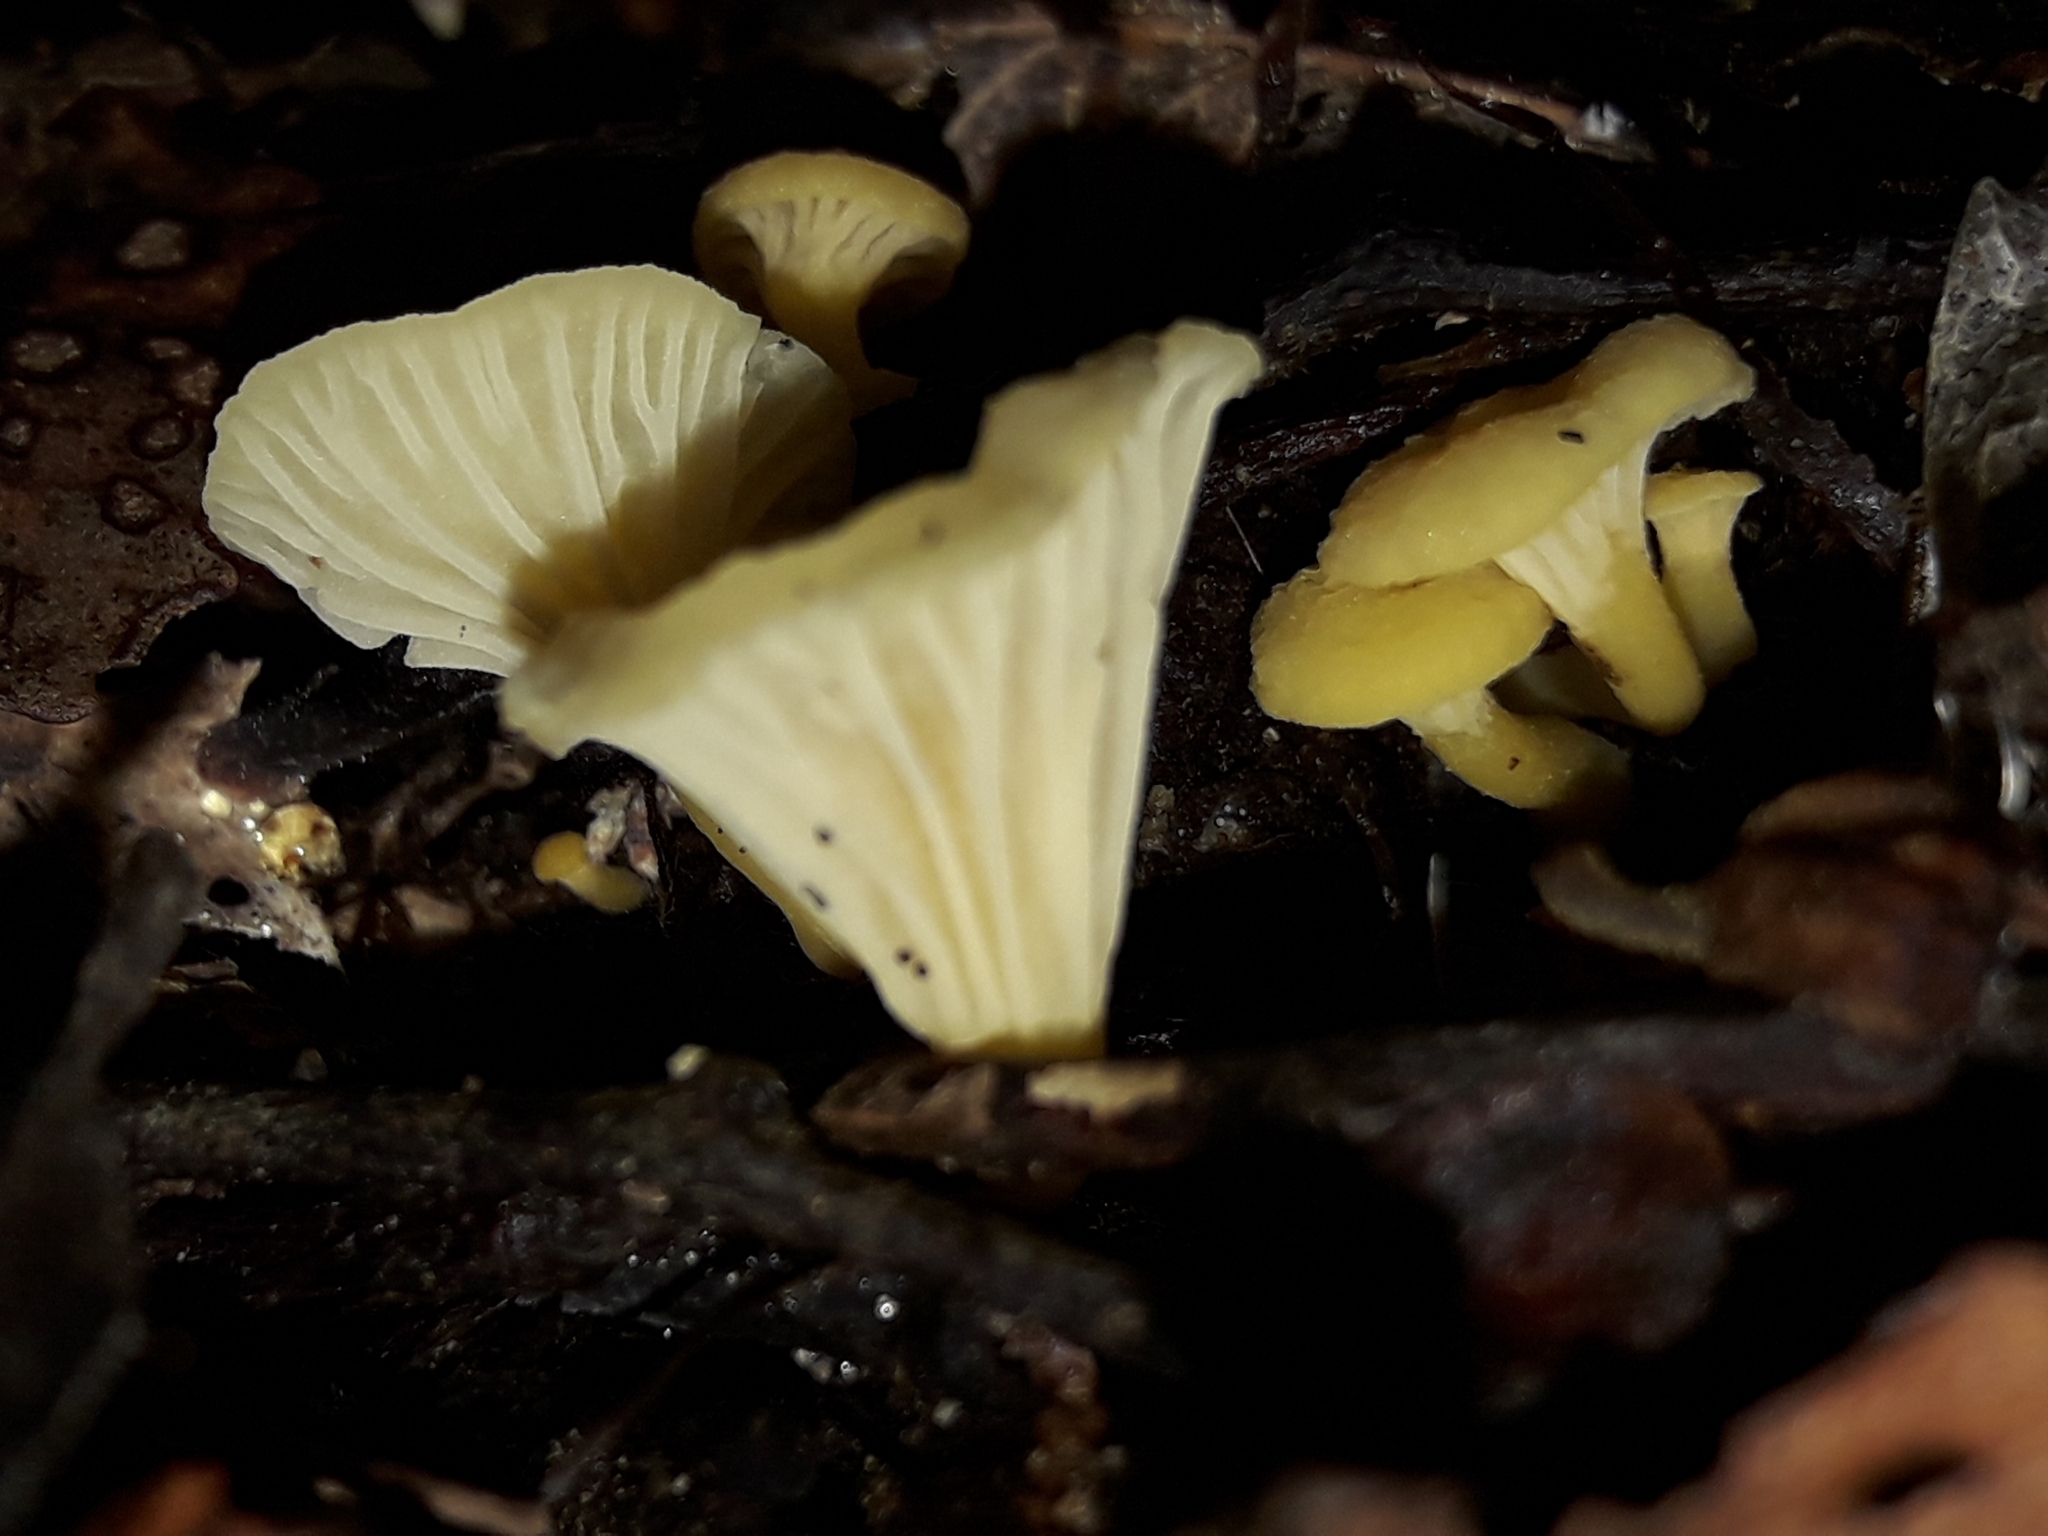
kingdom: Fungi
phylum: Basidiomycota
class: Agaricomycetes
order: Cantharellales
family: Hydnaceae
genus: Cantharellus
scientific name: Cantharellus wellingtonensis
